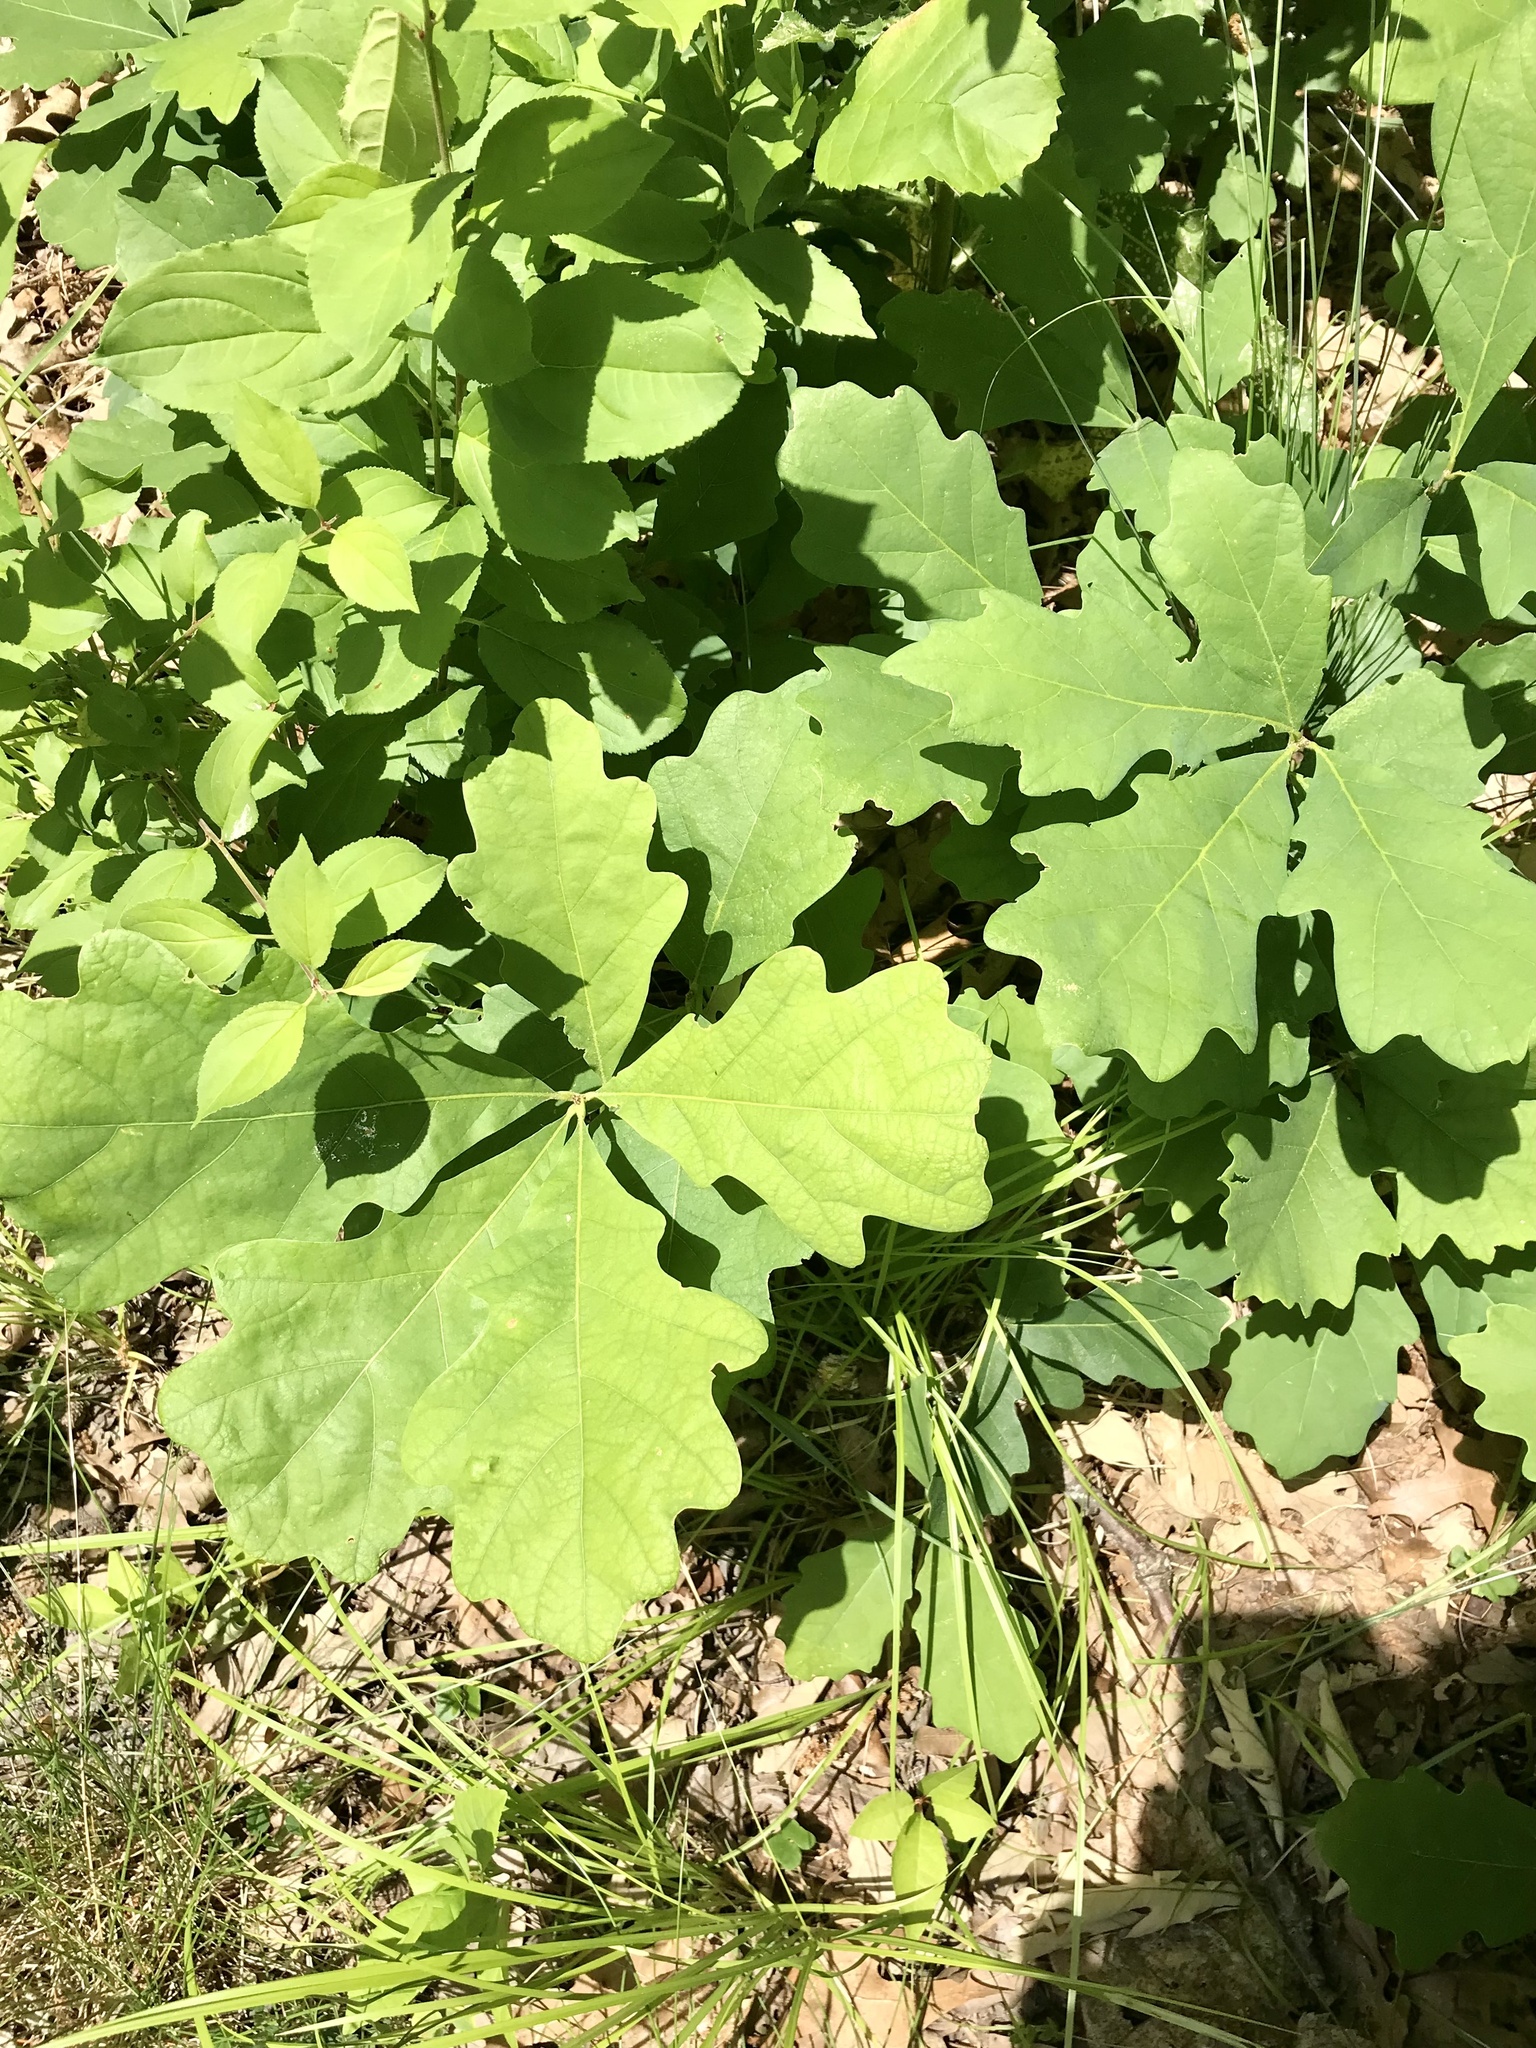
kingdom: Plantae
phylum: Tracheophyta
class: Magnoliopsida
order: Fagales
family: Fagaceae
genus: Quercus
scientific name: Quercus alba
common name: White oak
